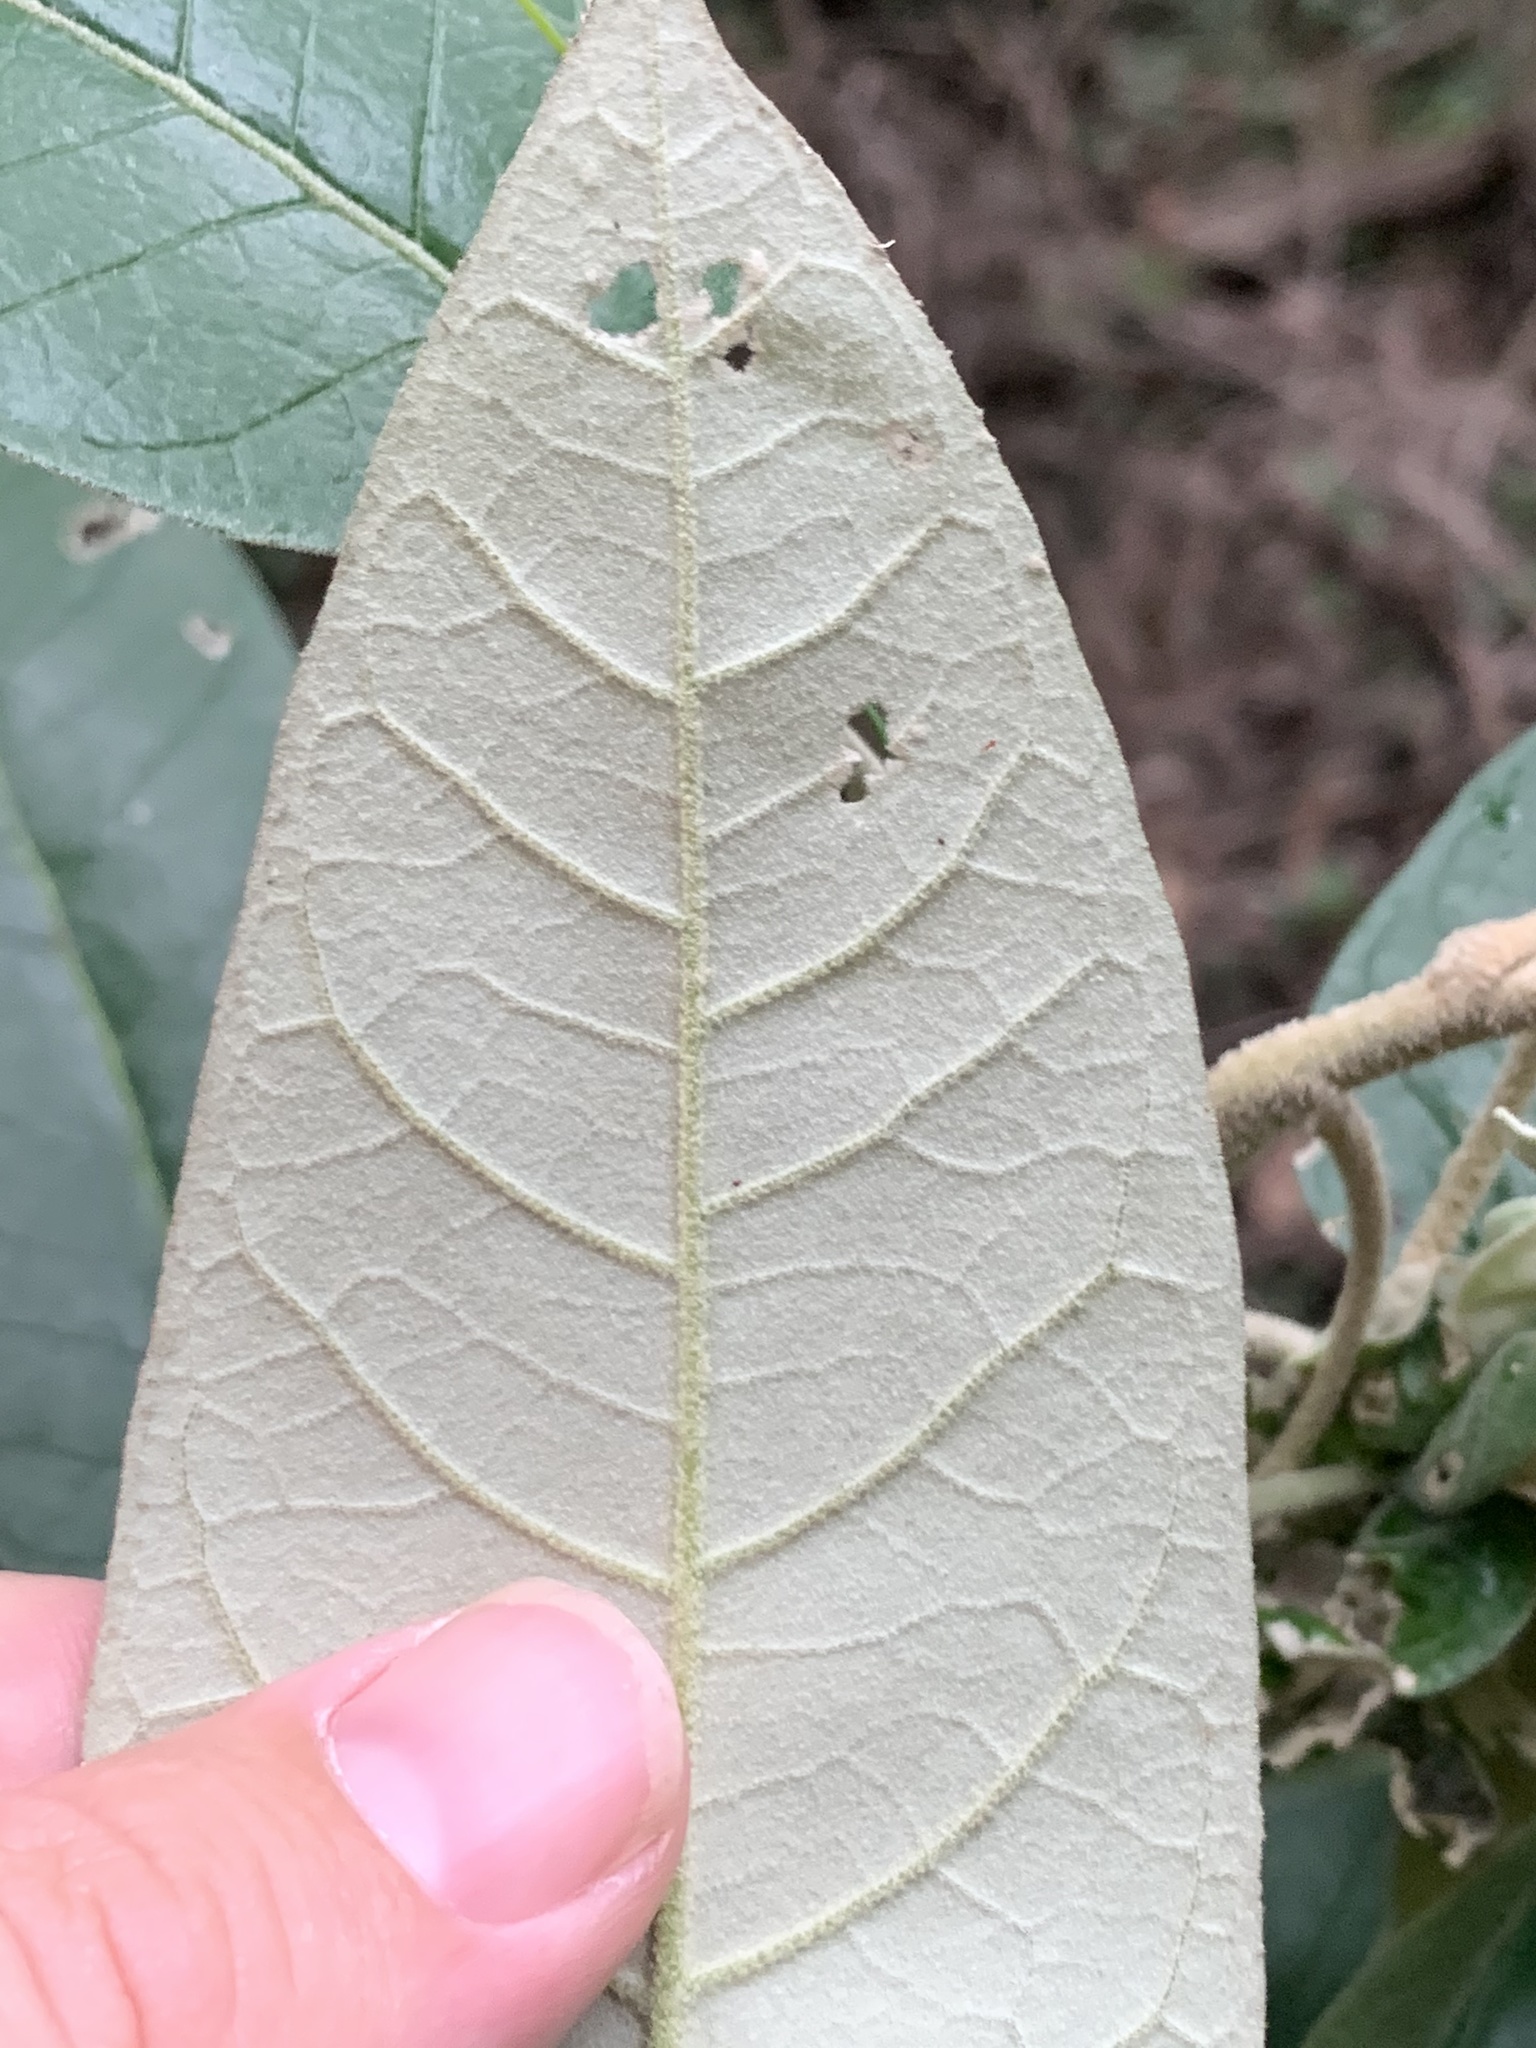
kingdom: Plantae
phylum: Tracheophyta
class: Magnoliopsida
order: Apiales
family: Araliaceae
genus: Astrotricha
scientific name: Astrotricha latifolia
